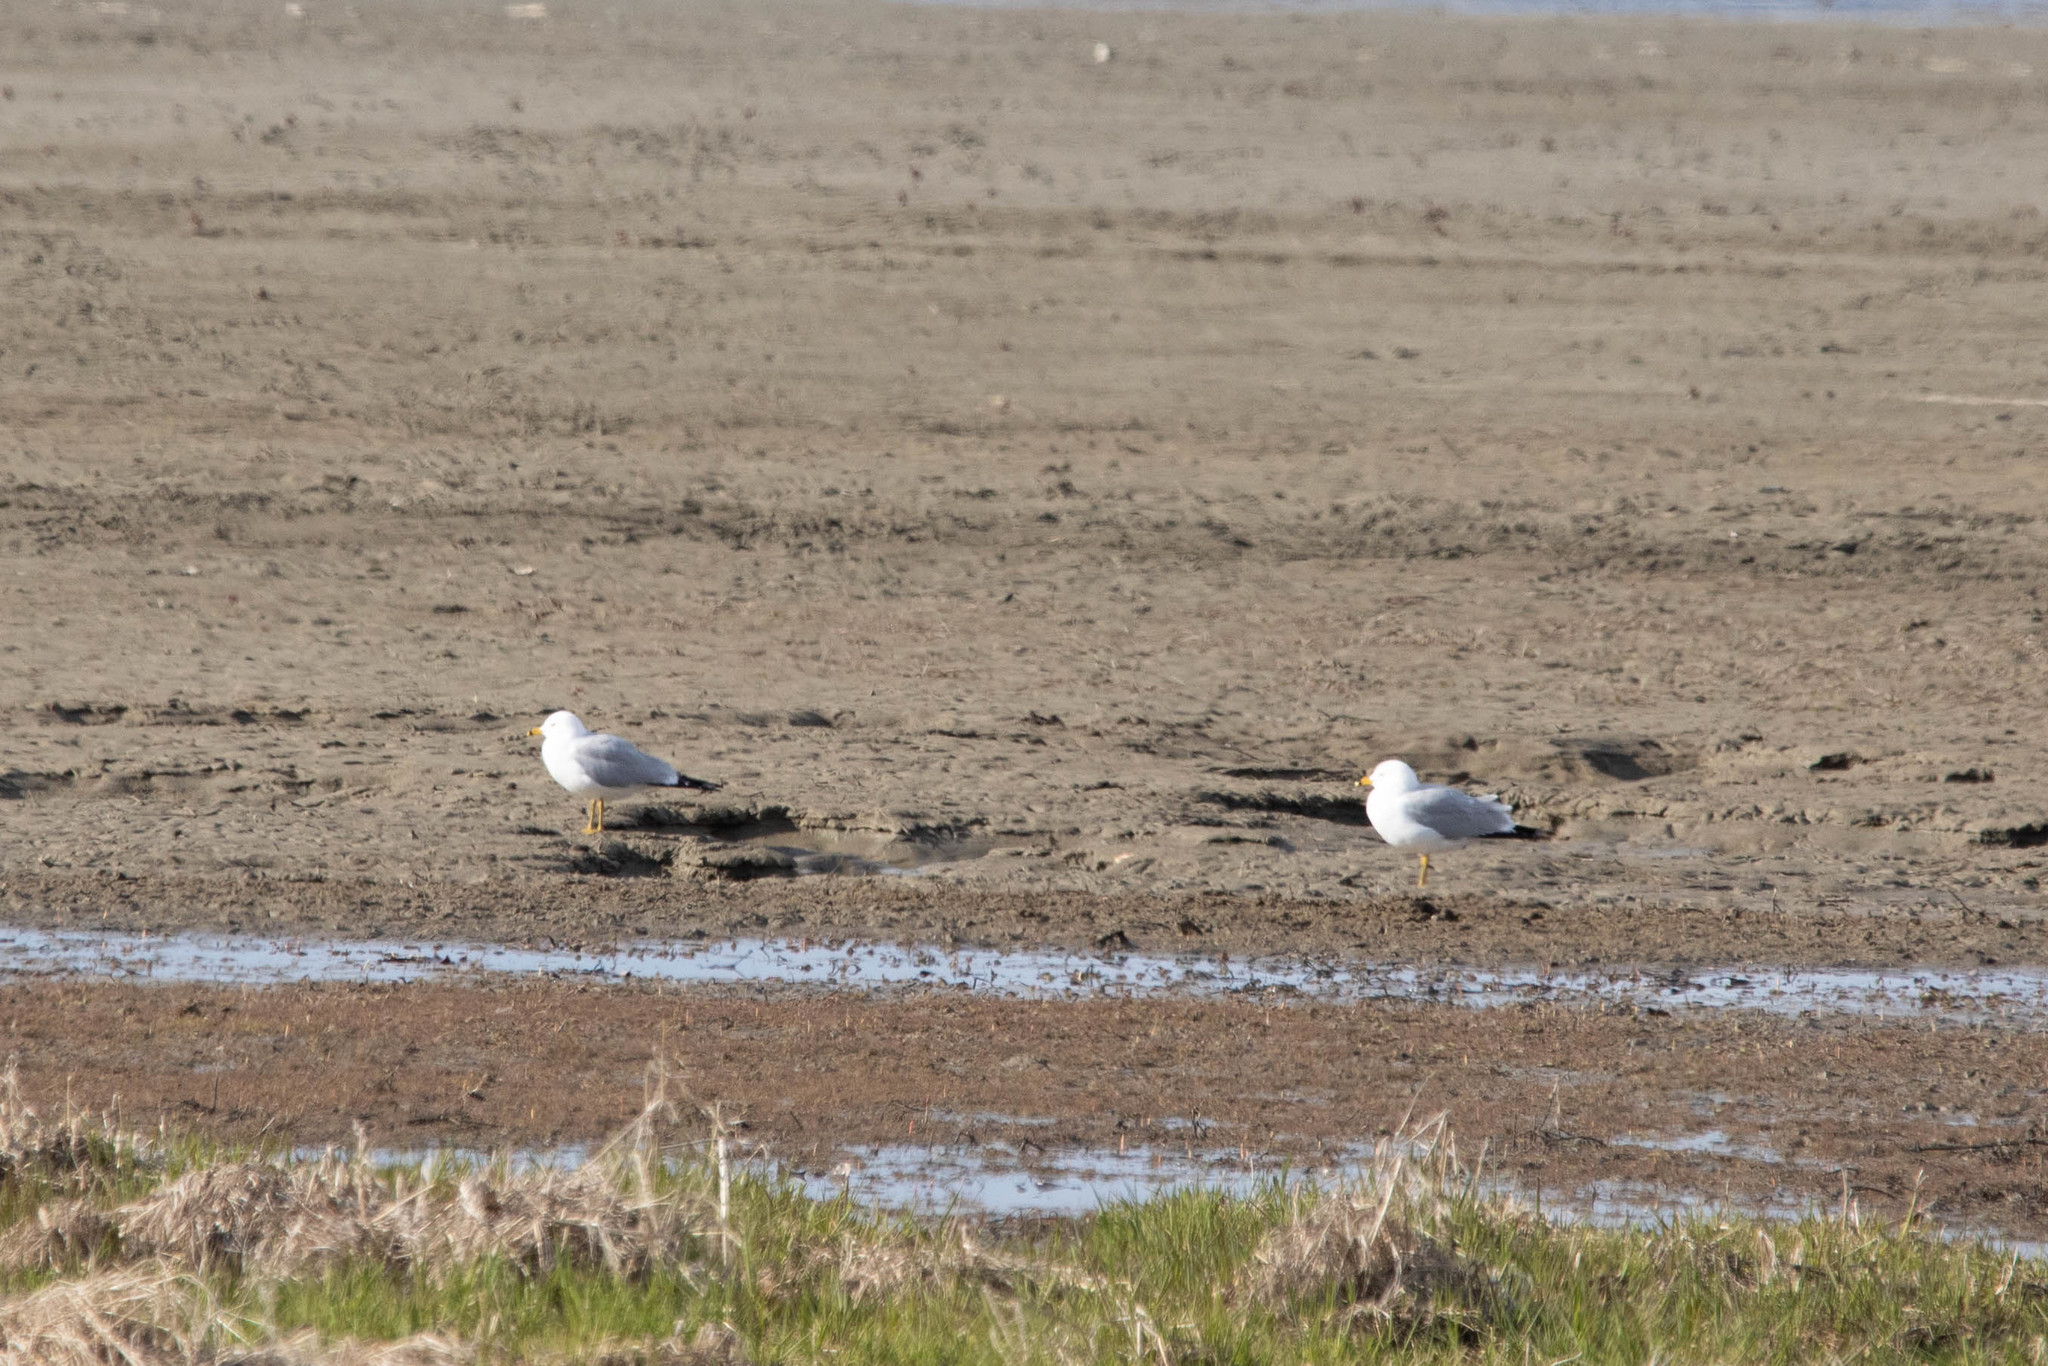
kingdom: Animalia
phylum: Chordata
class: Aves
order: Charadriiformes
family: Laridae
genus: Larus
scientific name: Larus delawarensis
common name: Ring-billed gull
